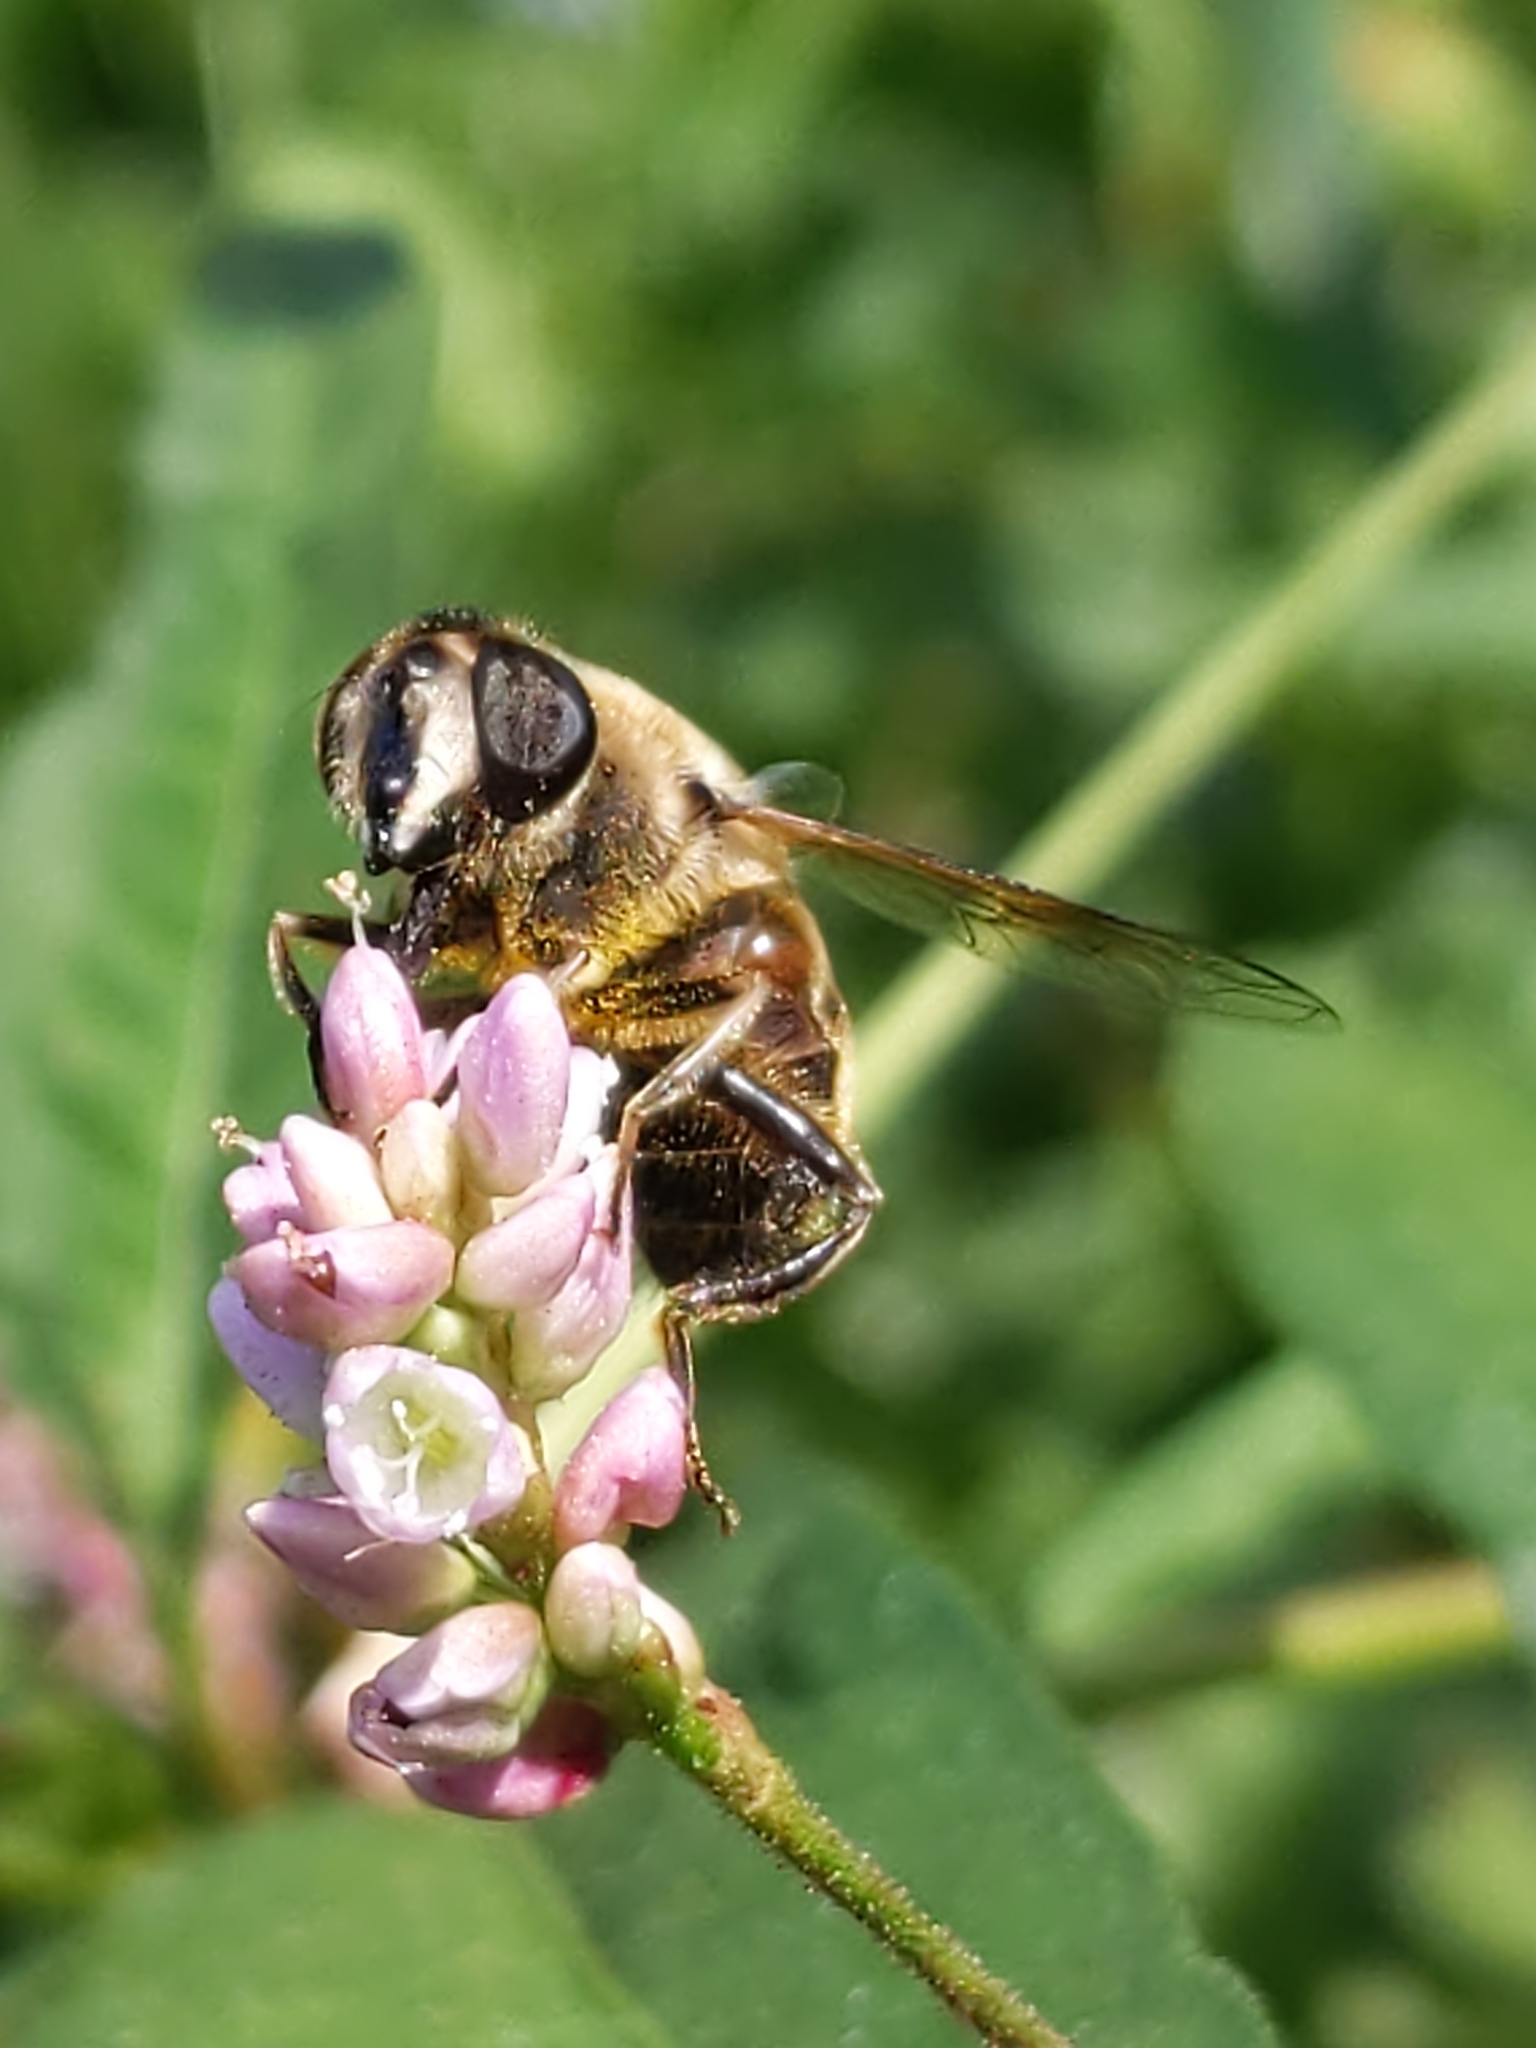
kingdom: Animalia
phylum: Arthropoda
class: Insecta
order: Diptera
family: Syrphidae
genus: Eristalis
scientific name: Eristalis tenax
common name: Drone fly
